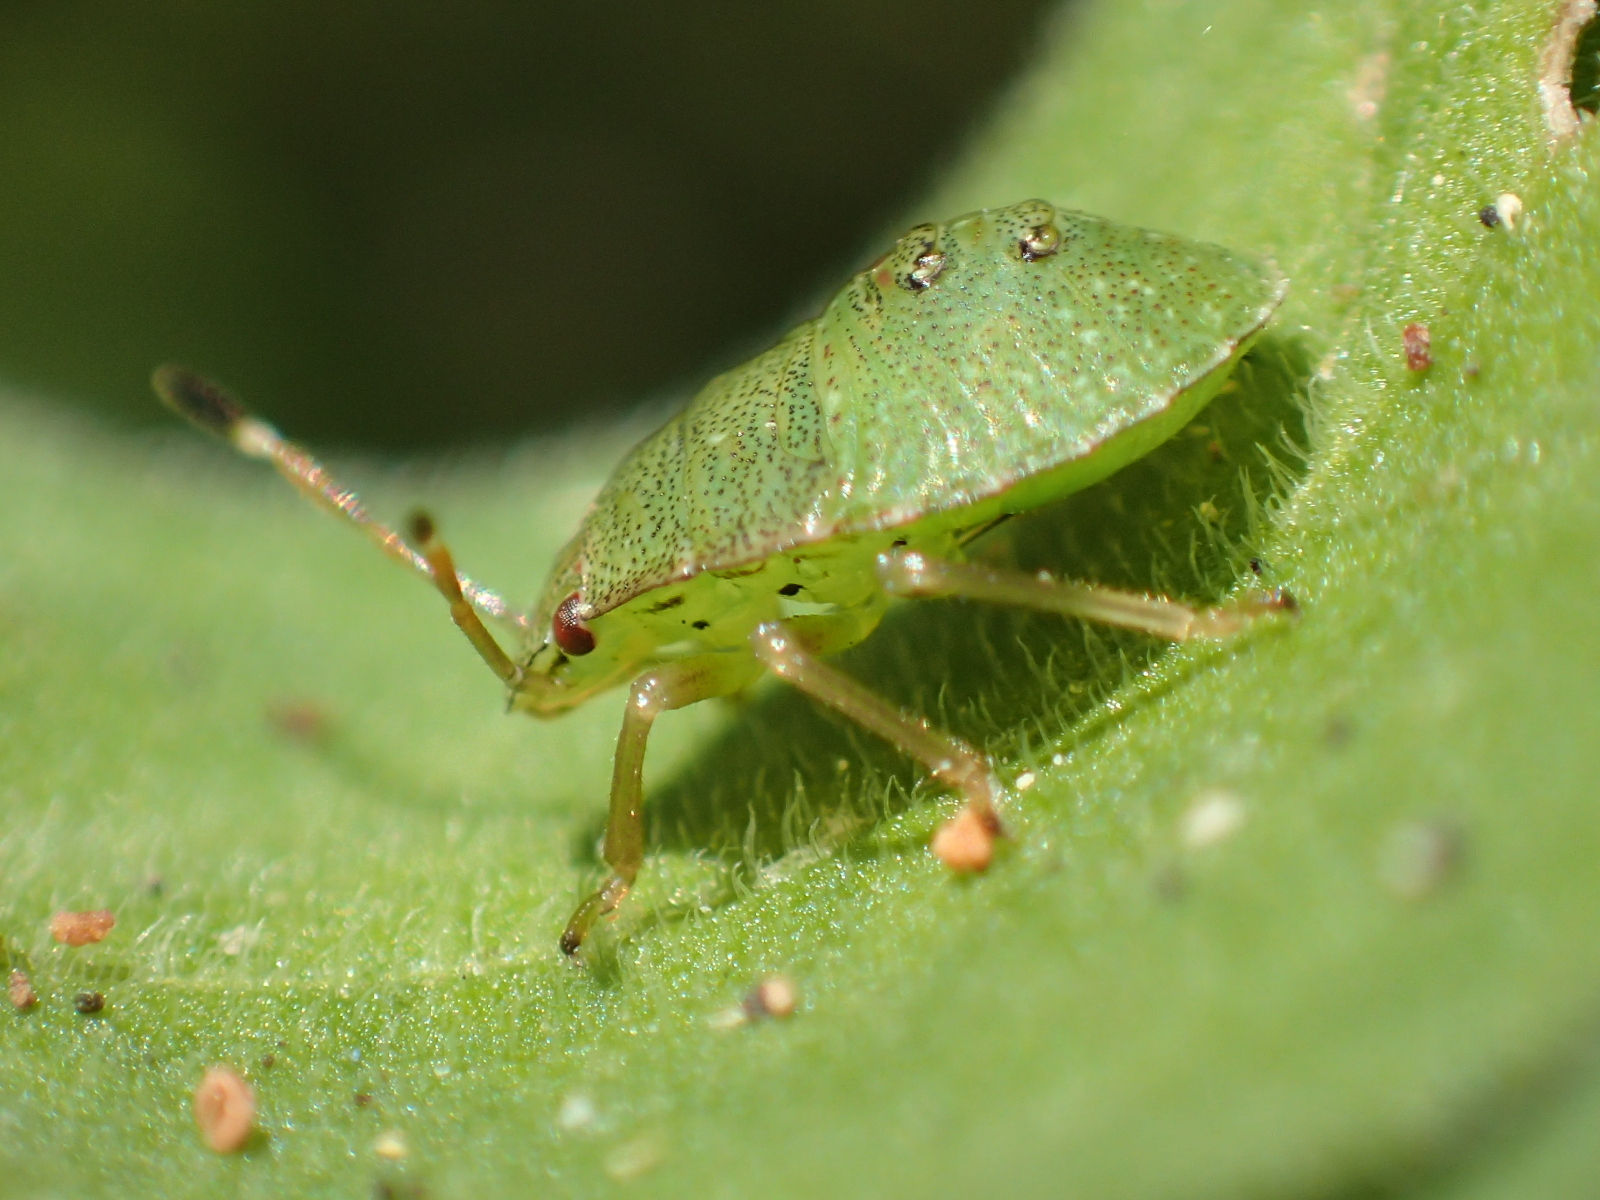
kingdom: Animalia
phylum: Arthropoda
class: Insecta
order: Hemiptera
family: Pentatomidae
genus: Cuspicona
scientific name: Cuspicona simplex
